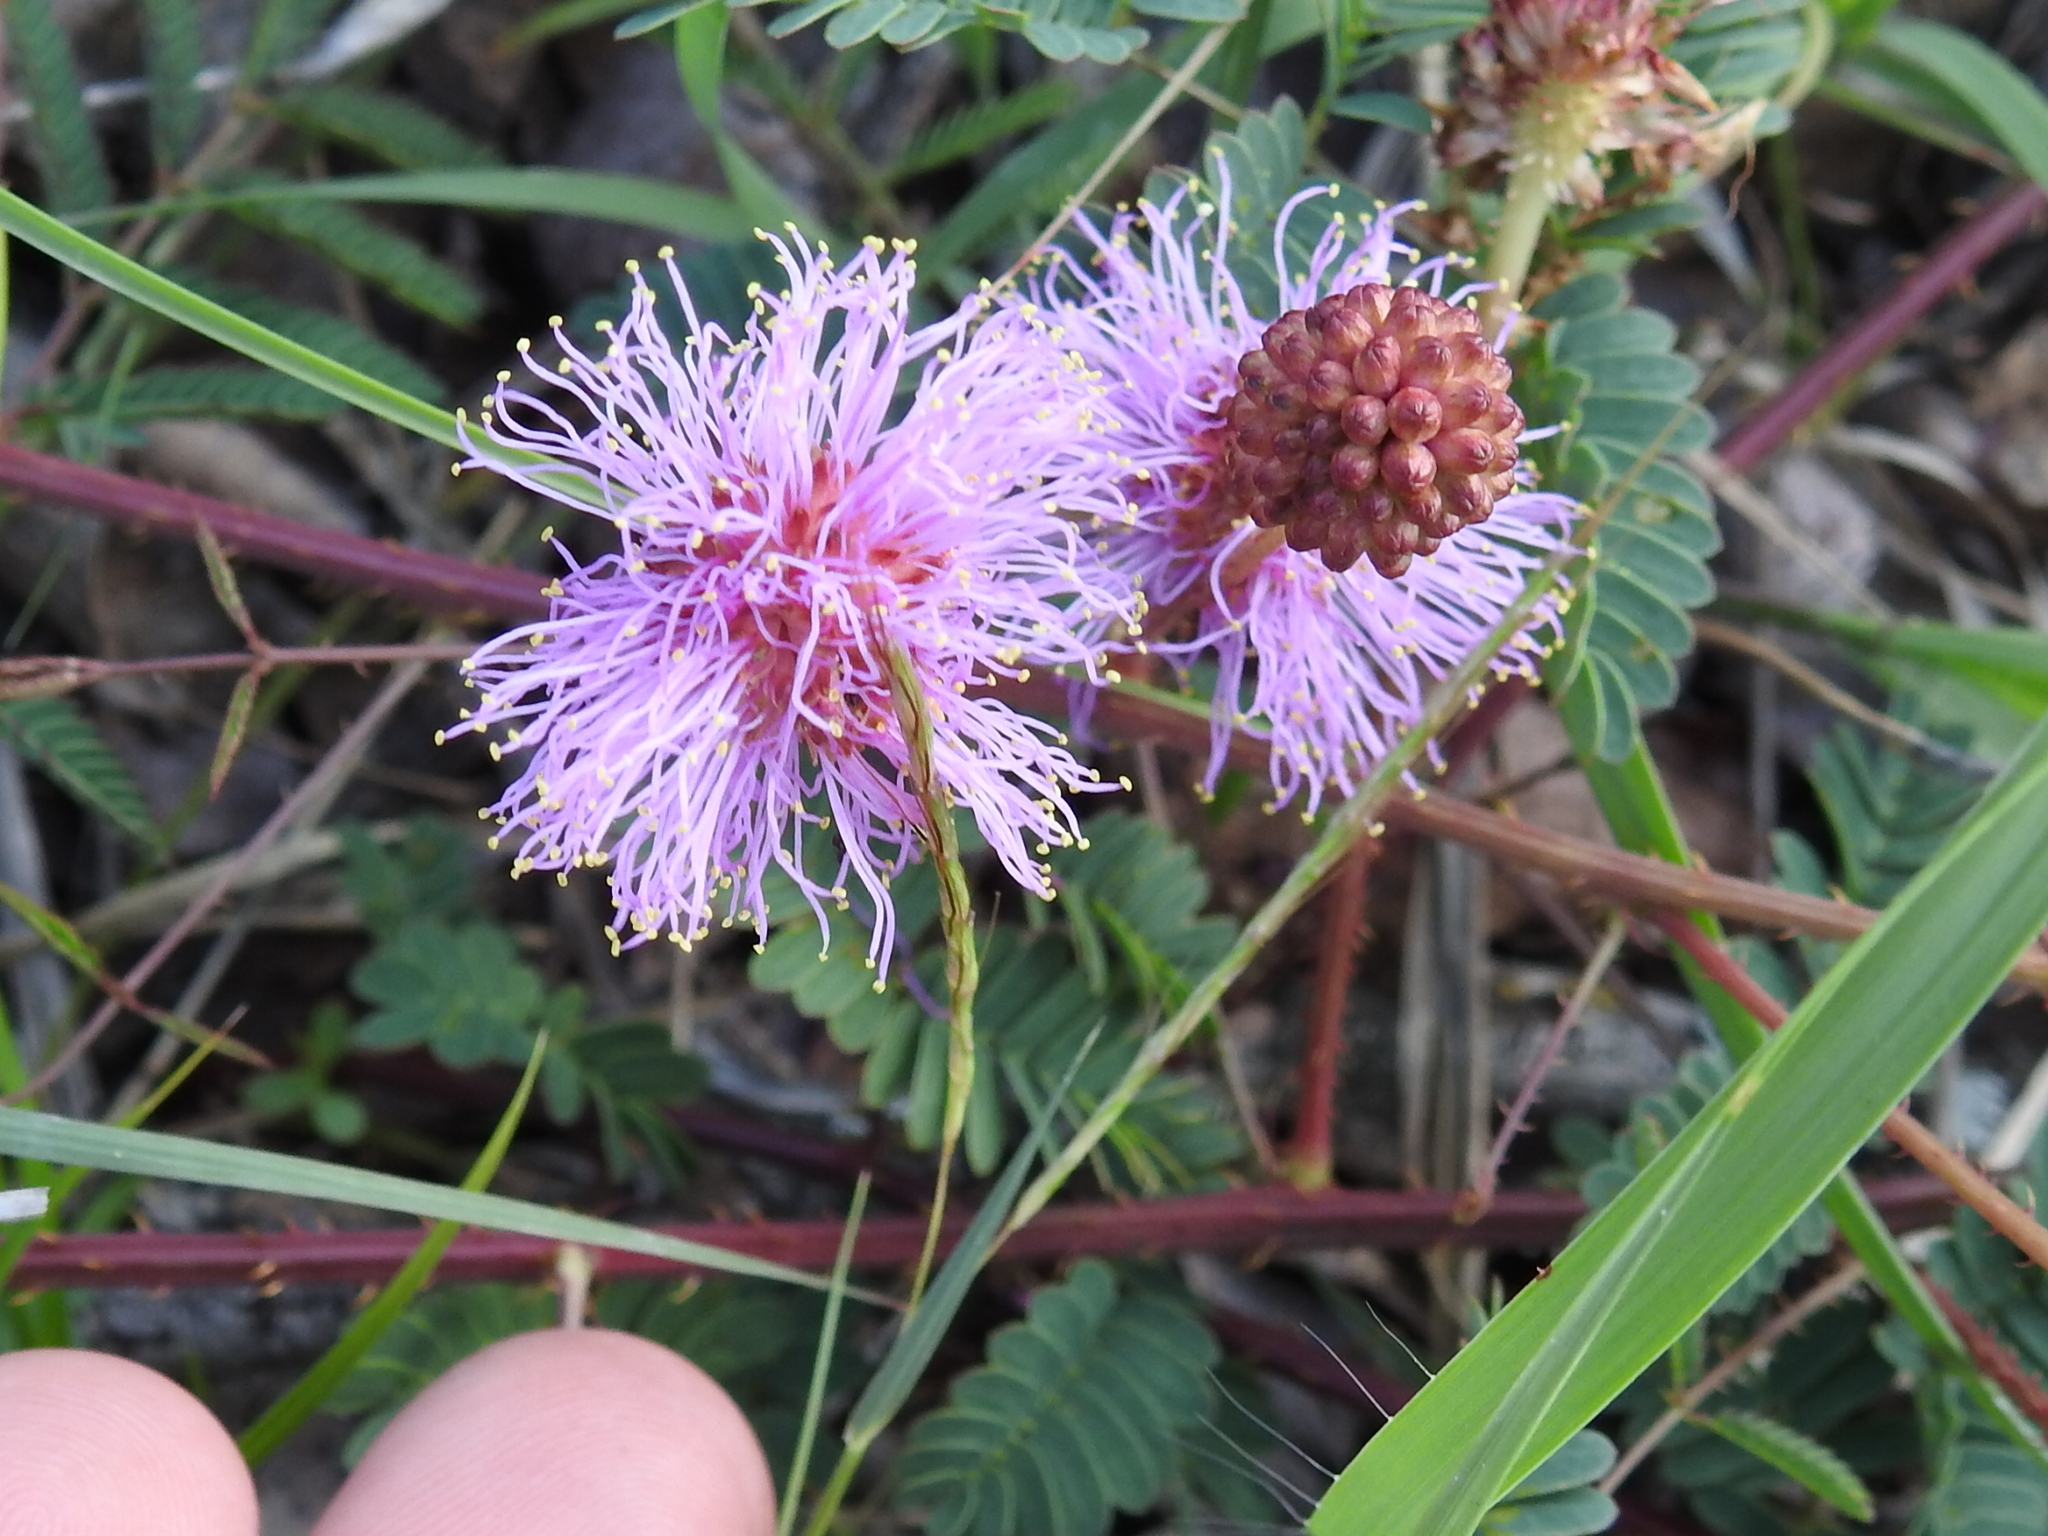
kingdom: Plantae
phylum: Tracheophyta
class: Magnoliopsida
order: Fabales
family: Fabaceae
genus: Mimosa
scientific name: Mimosa quadrivalvis
